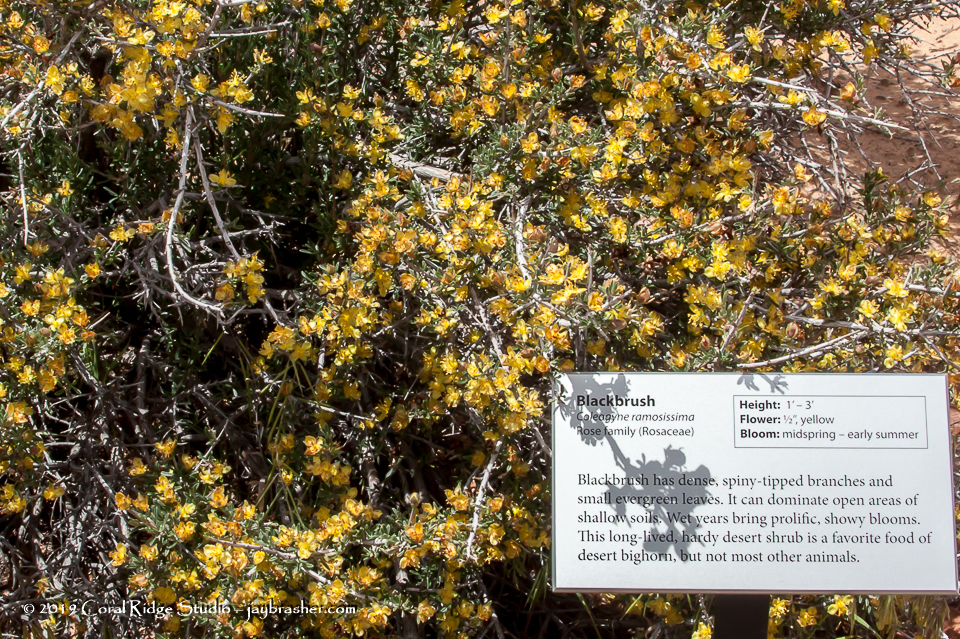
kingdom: Plantae
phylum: Tracheophyta
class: Magnoliopsida
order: Rosales
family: Rosaceae
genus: Coleogyne
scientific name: Coleogyne ramosissima
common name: Blackbrush
